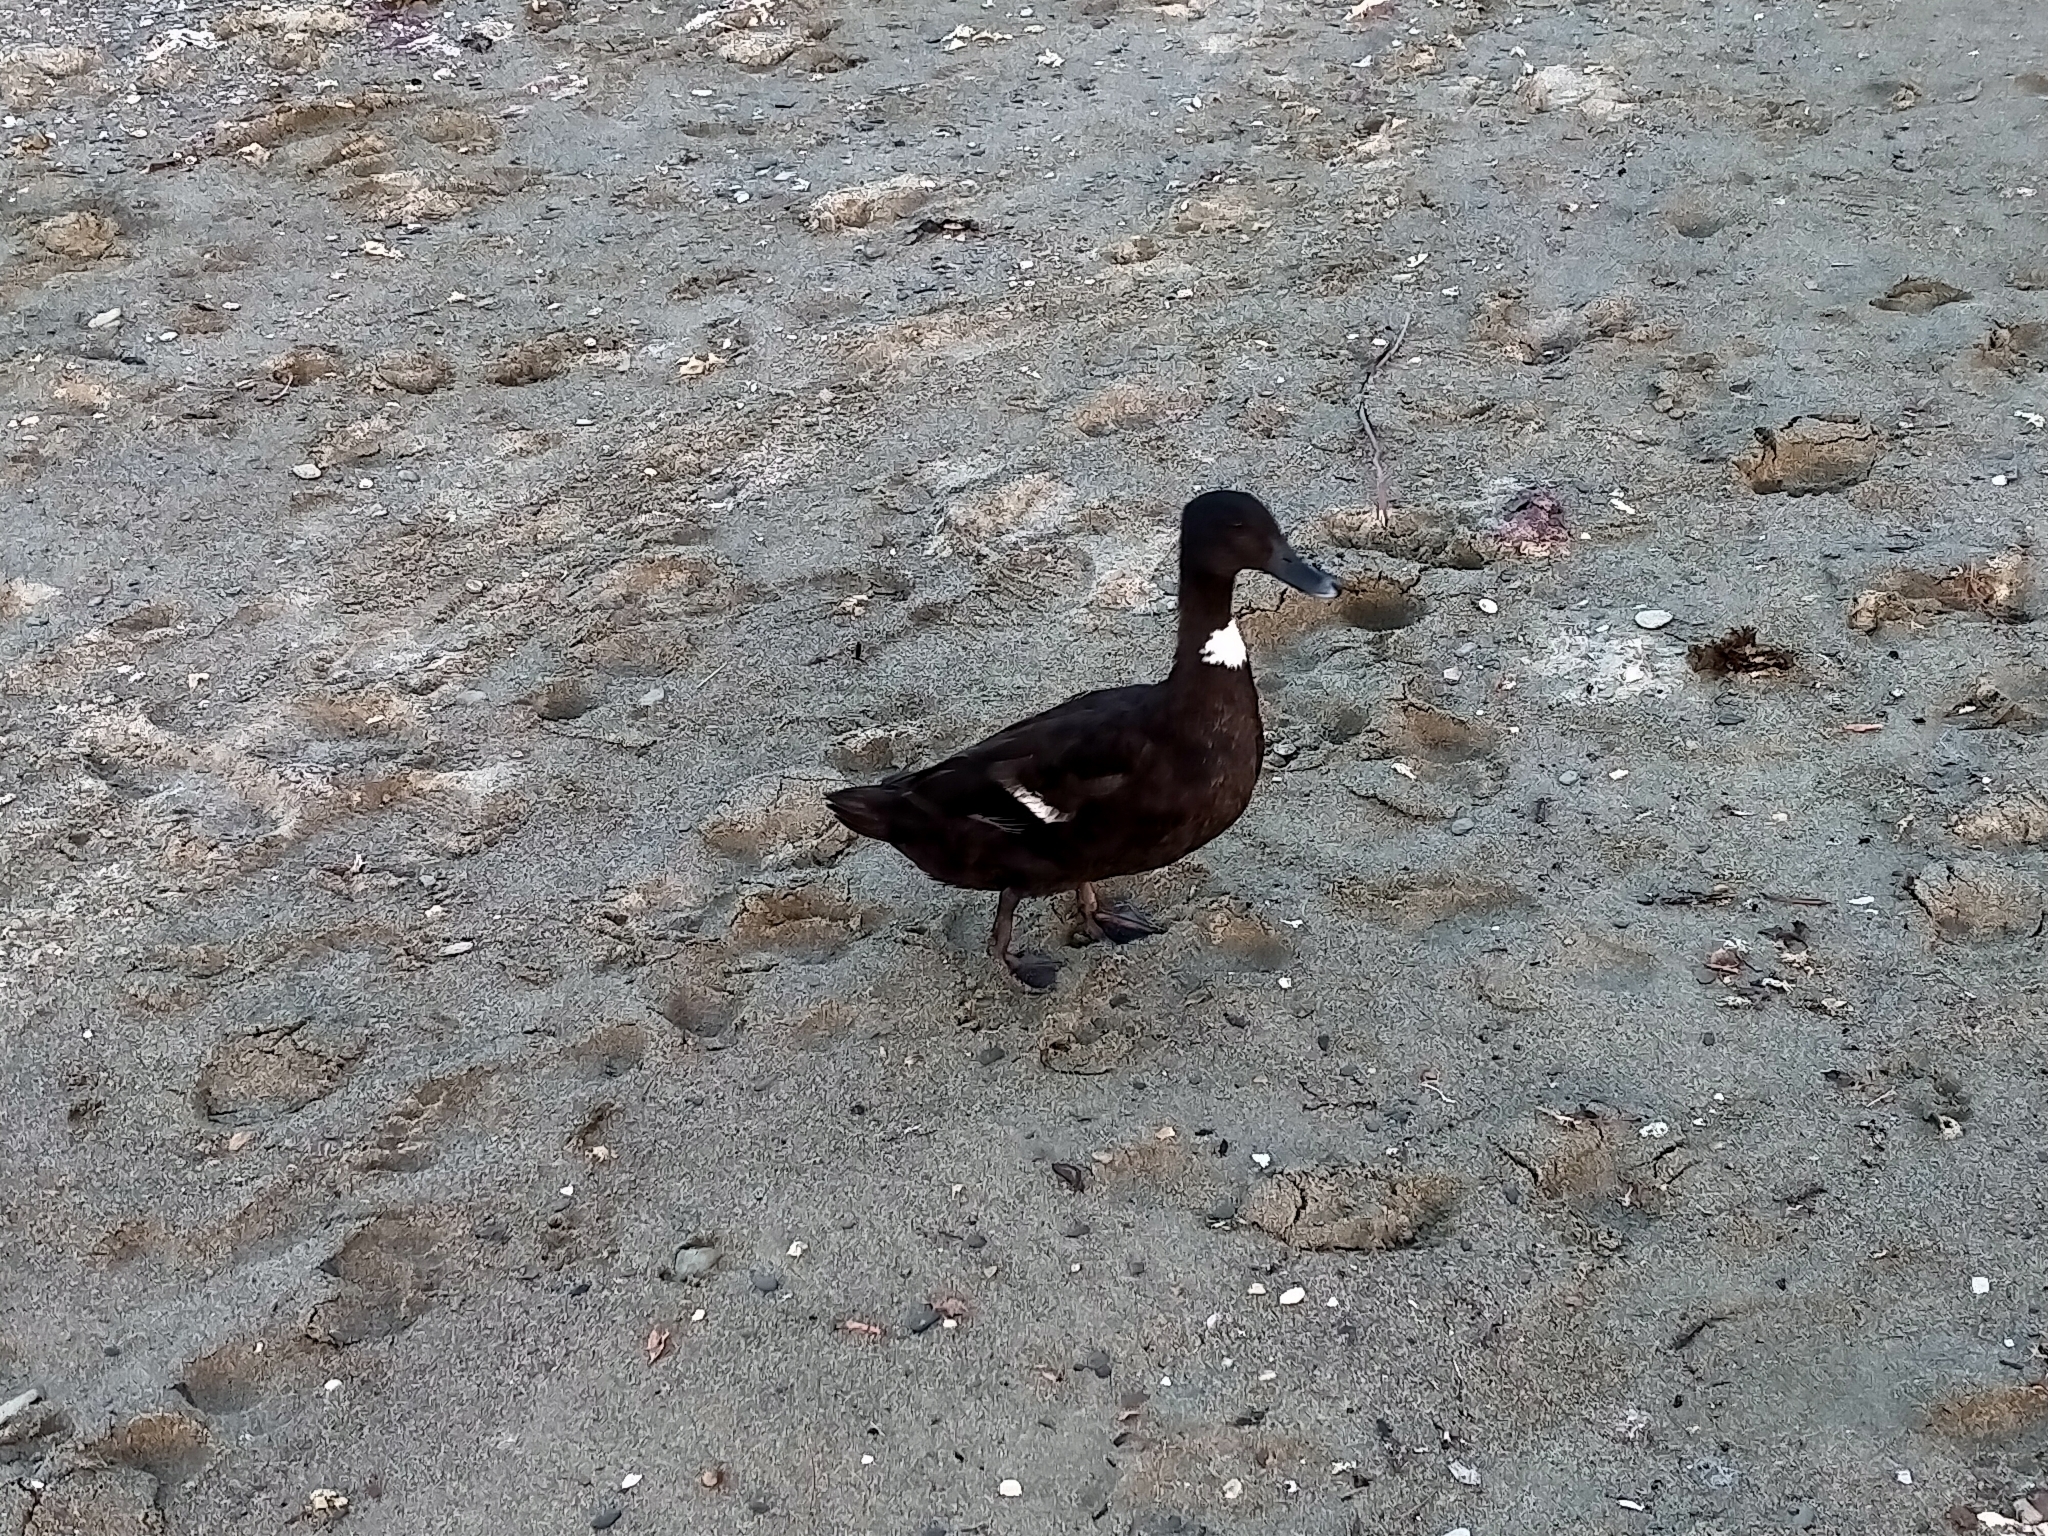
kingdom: Animalia
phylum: Chordata
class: Aves
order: Anseriformes
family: Anatidae
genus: Anas
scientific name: Anas platyrhynchos
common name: Mallard
